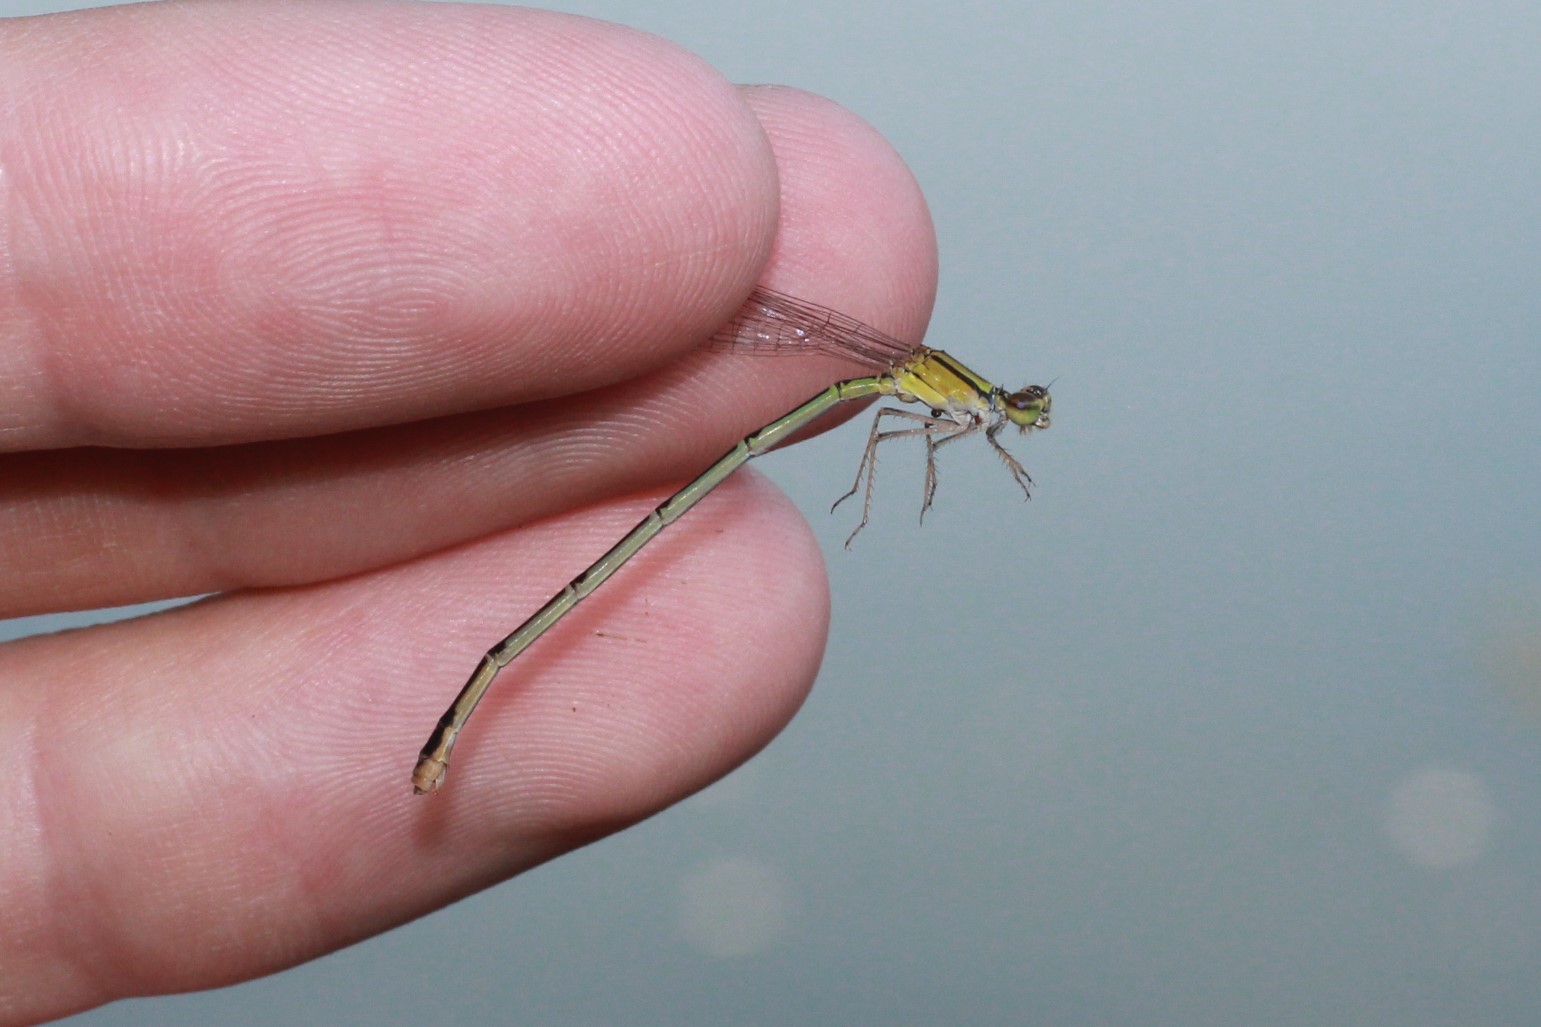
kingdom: Animalia
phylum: Arthropoda
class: Insecta
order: Odonata
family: Coenagrionidae
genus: Enallagma
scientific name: Enallagma signatum
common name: Orange bluet
